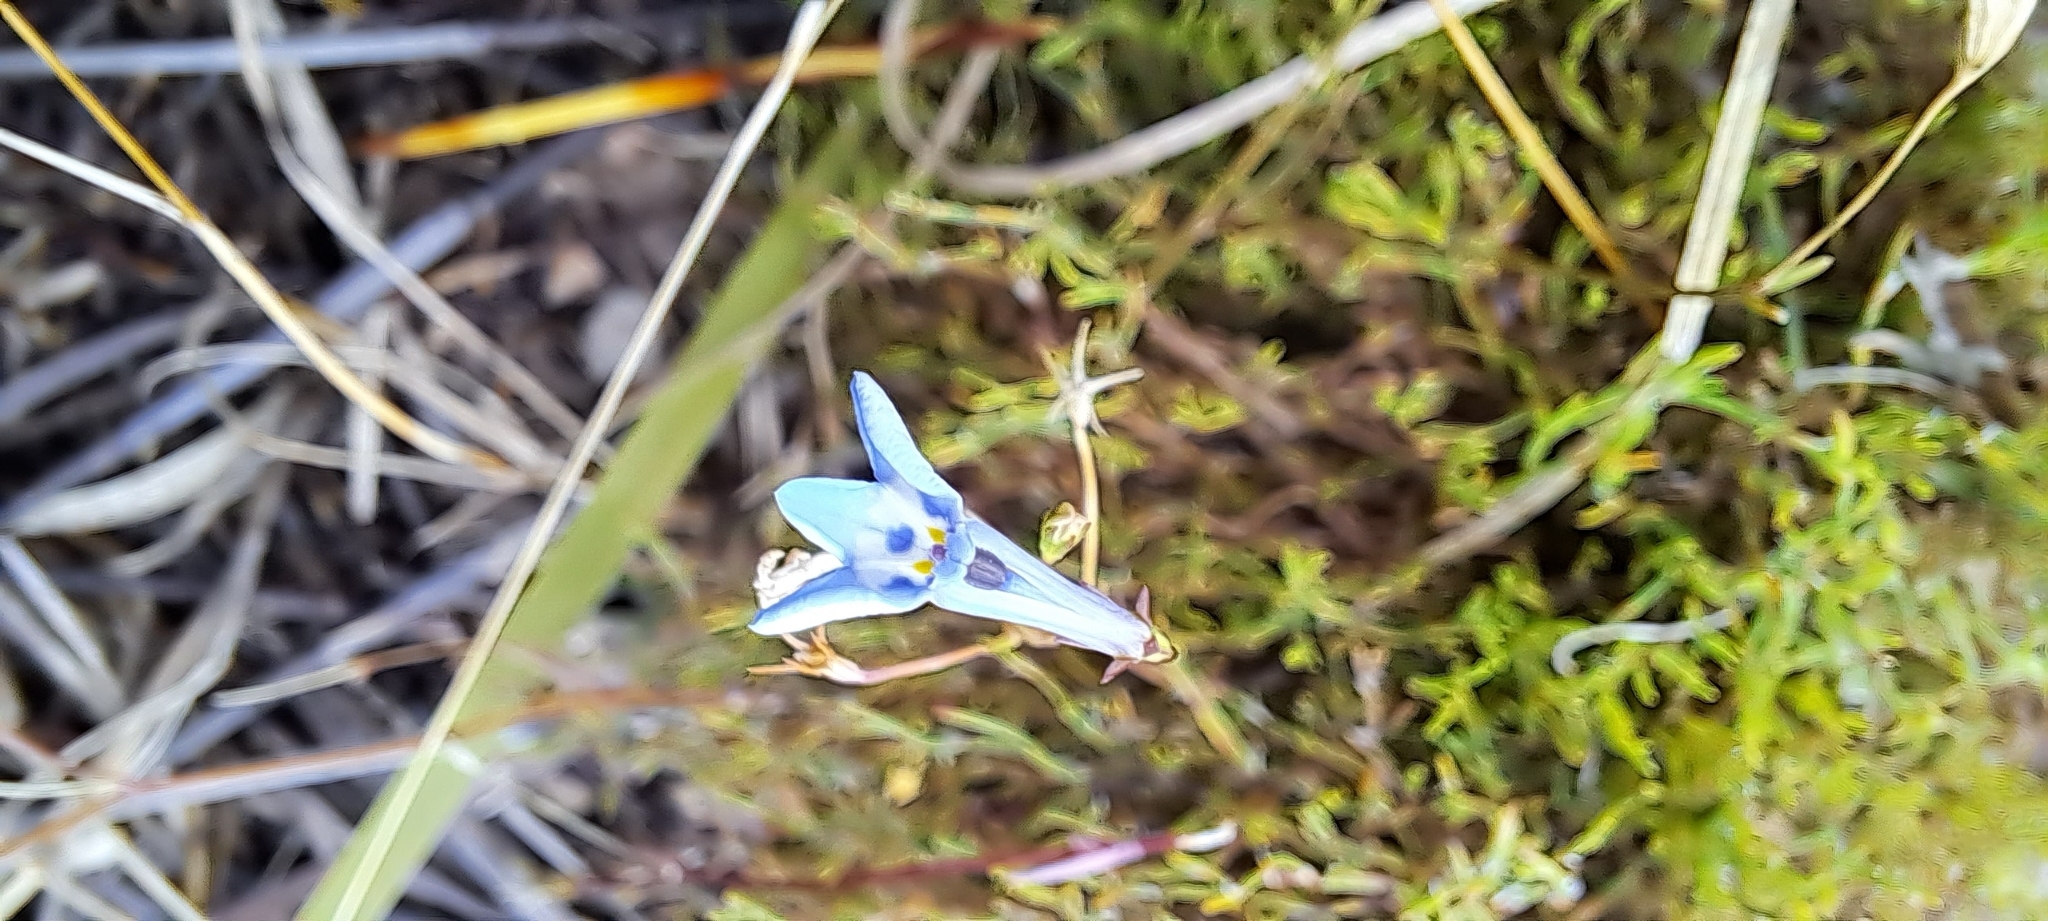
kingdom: Plantae
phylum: Tracheophyta
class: Magnoliopsida
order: Asterales
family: Campanulaceae
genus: Lobelia
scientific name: Lobelia erinus
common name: Edging lobelia
